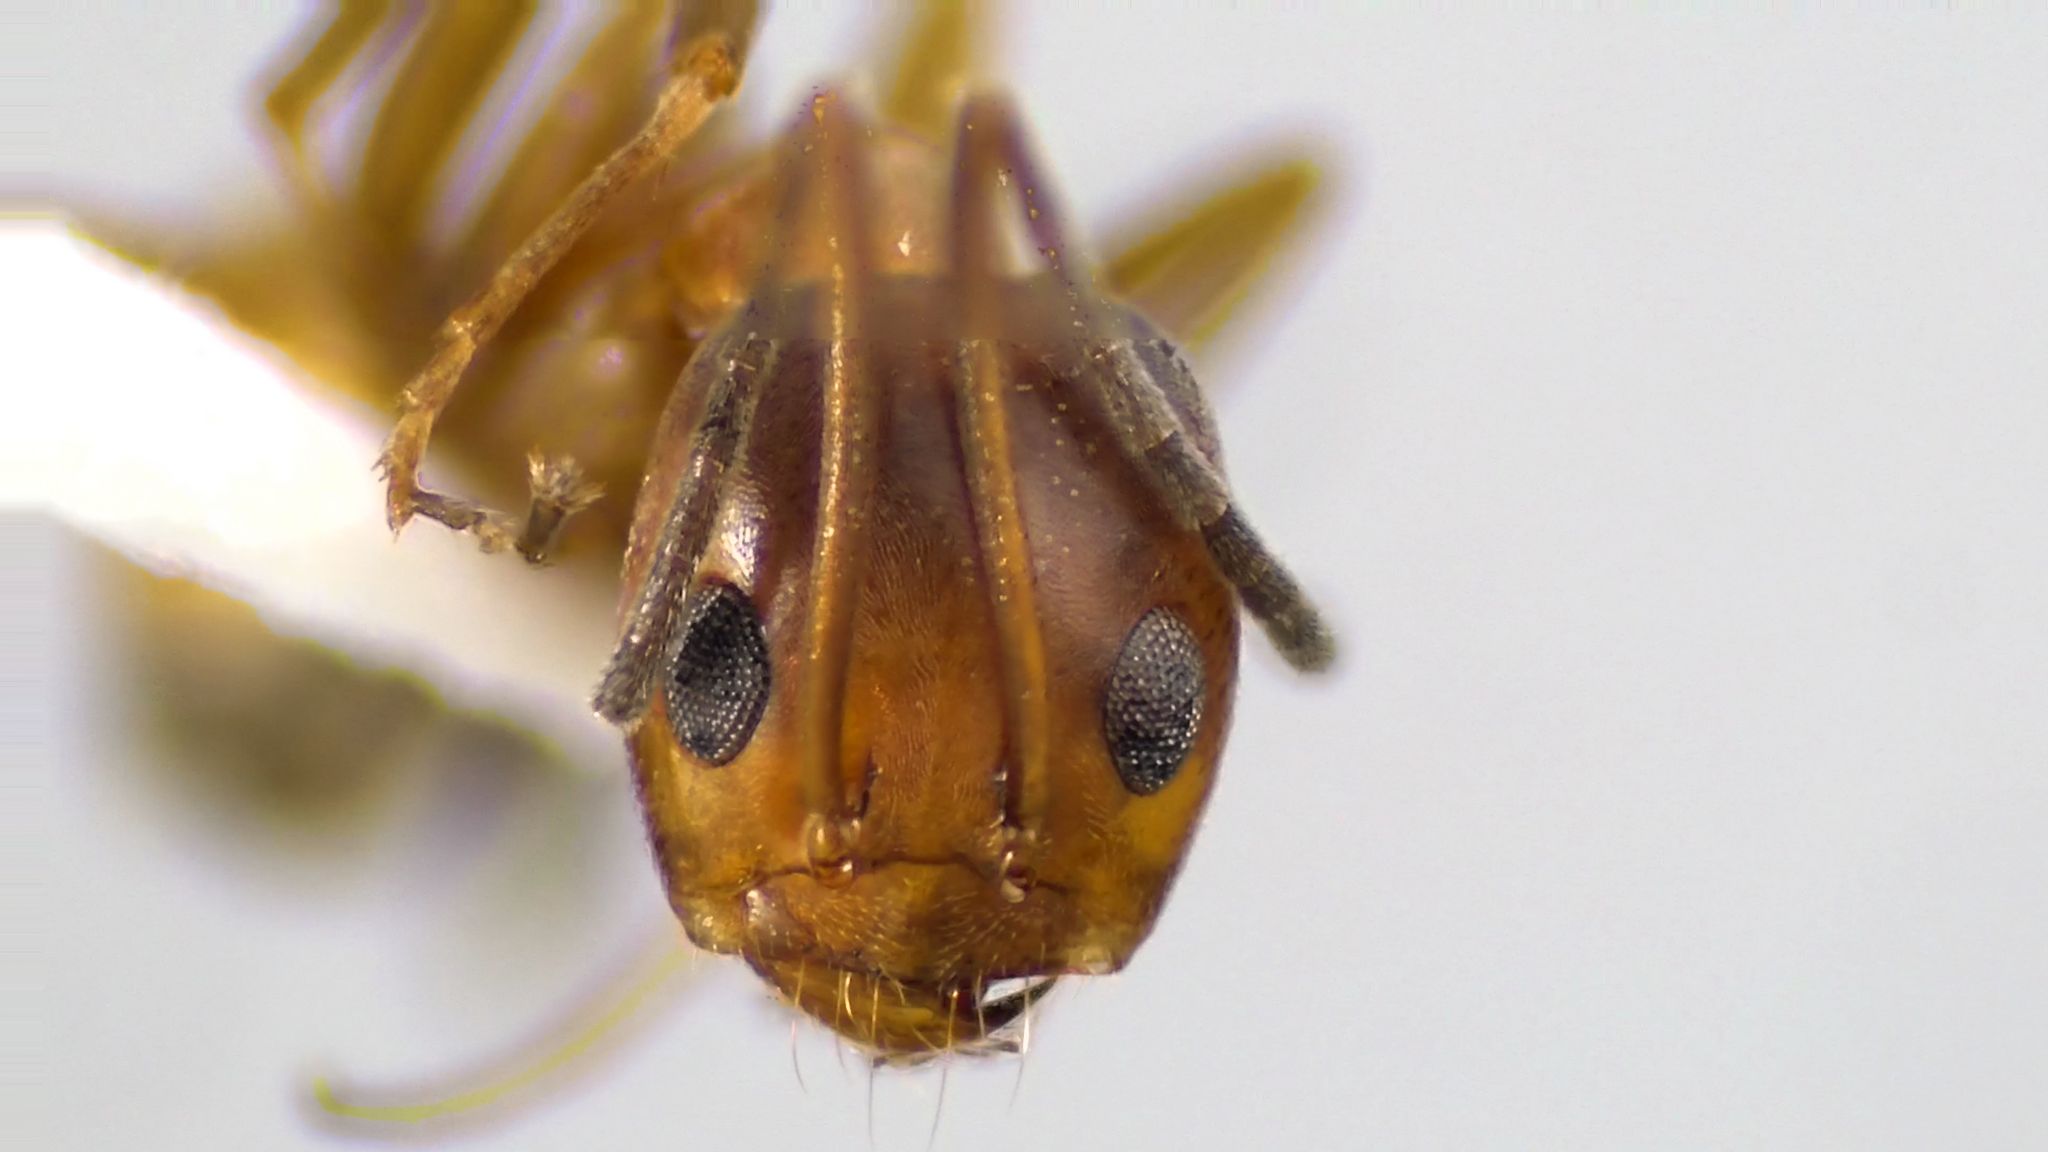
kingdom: Animalia
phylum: Arthropoda
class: Insecta
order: Hymenoptera
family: Formicidae
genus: Dorymyrmex
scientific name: Dorymyrmex bureni
